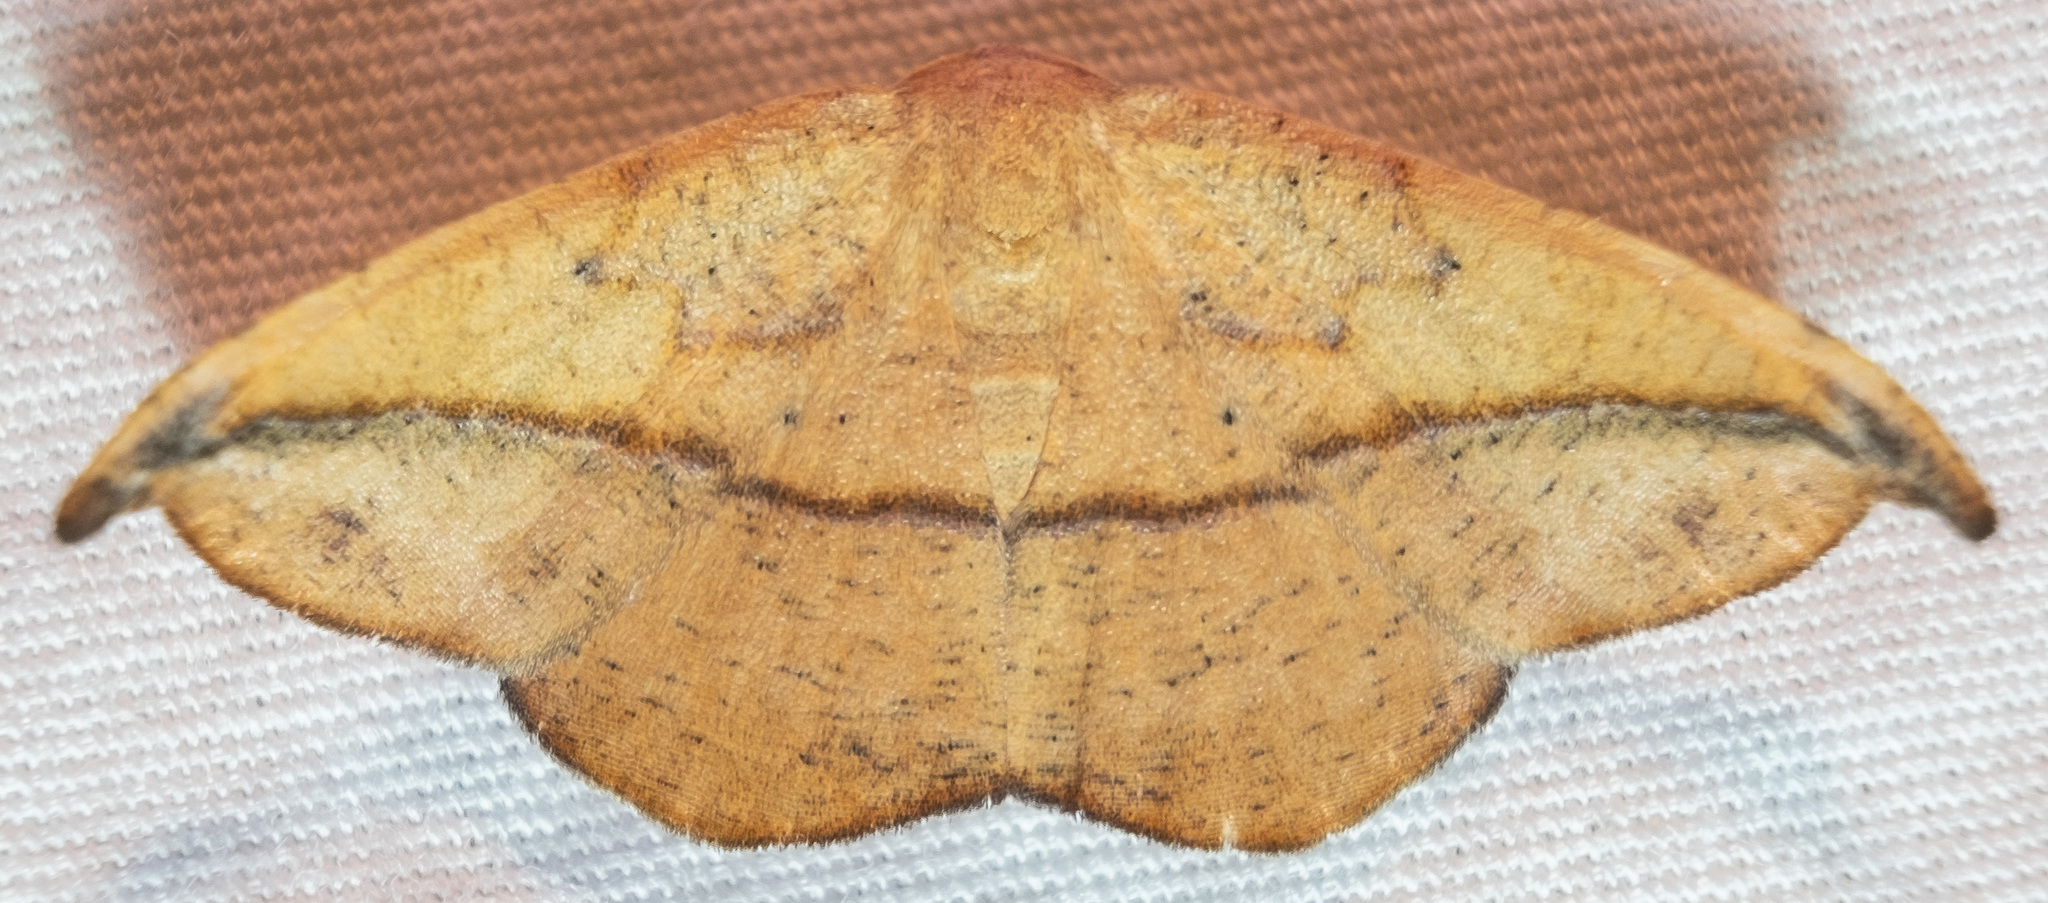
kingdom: Animalia
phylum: Arthropoda
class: Insecta
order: Lepidoptera
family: Geometridae
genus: Patalene
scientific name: Patalene olyzonaria
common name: Juniper geometer moth
